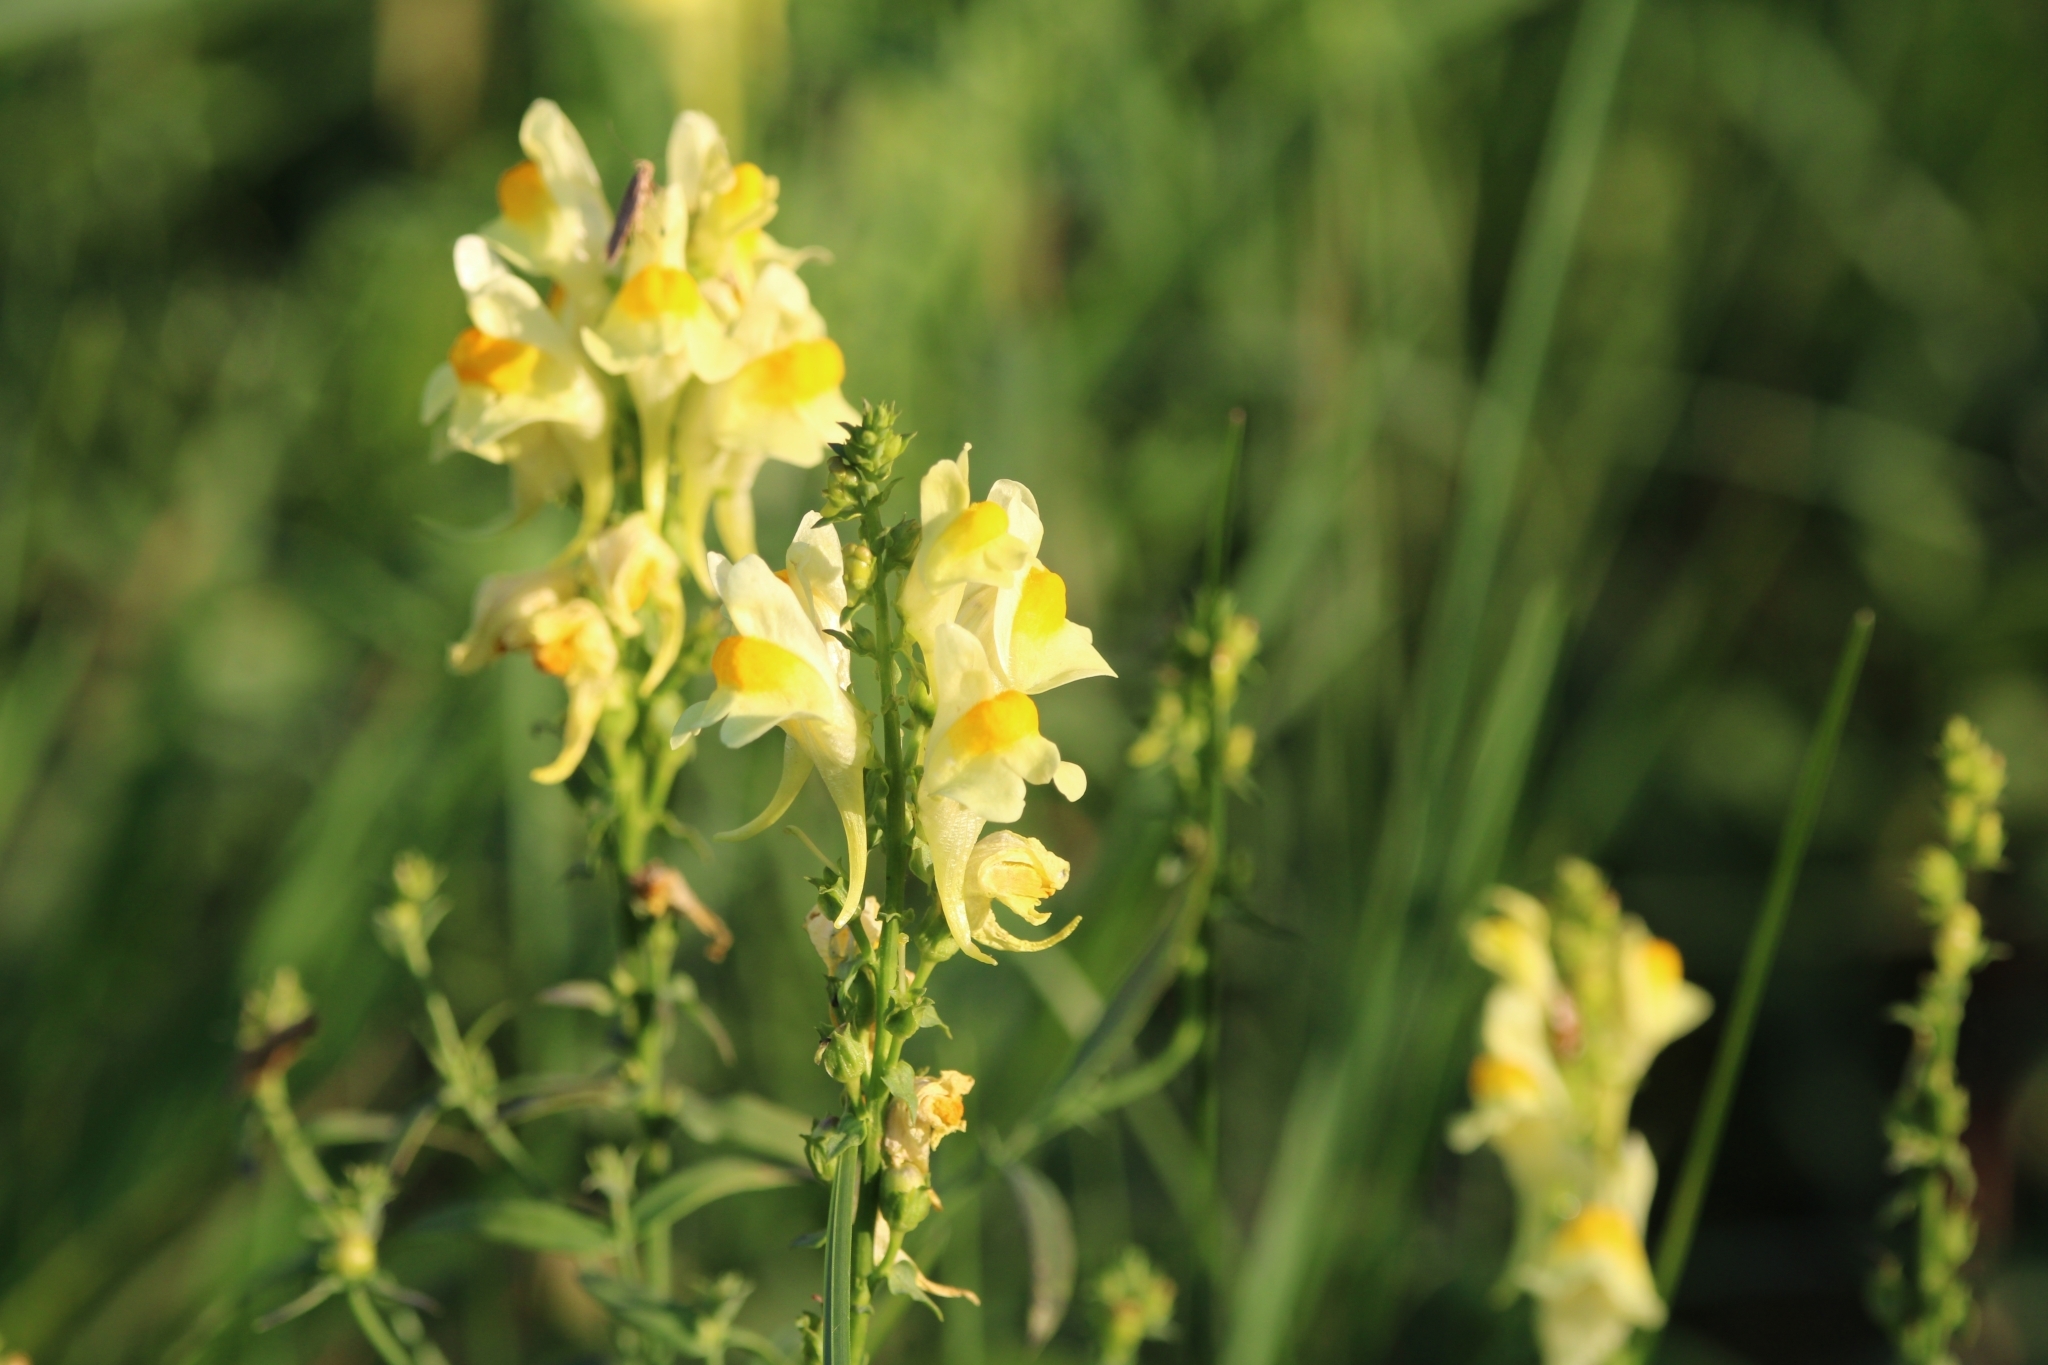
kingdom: Plantae
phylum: Tracheophyta
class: Magnoliopsida
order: Lamiales
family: Plantaginaceae
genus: Linaria
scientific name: Linaria vulgaris
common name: Butter and eggs
